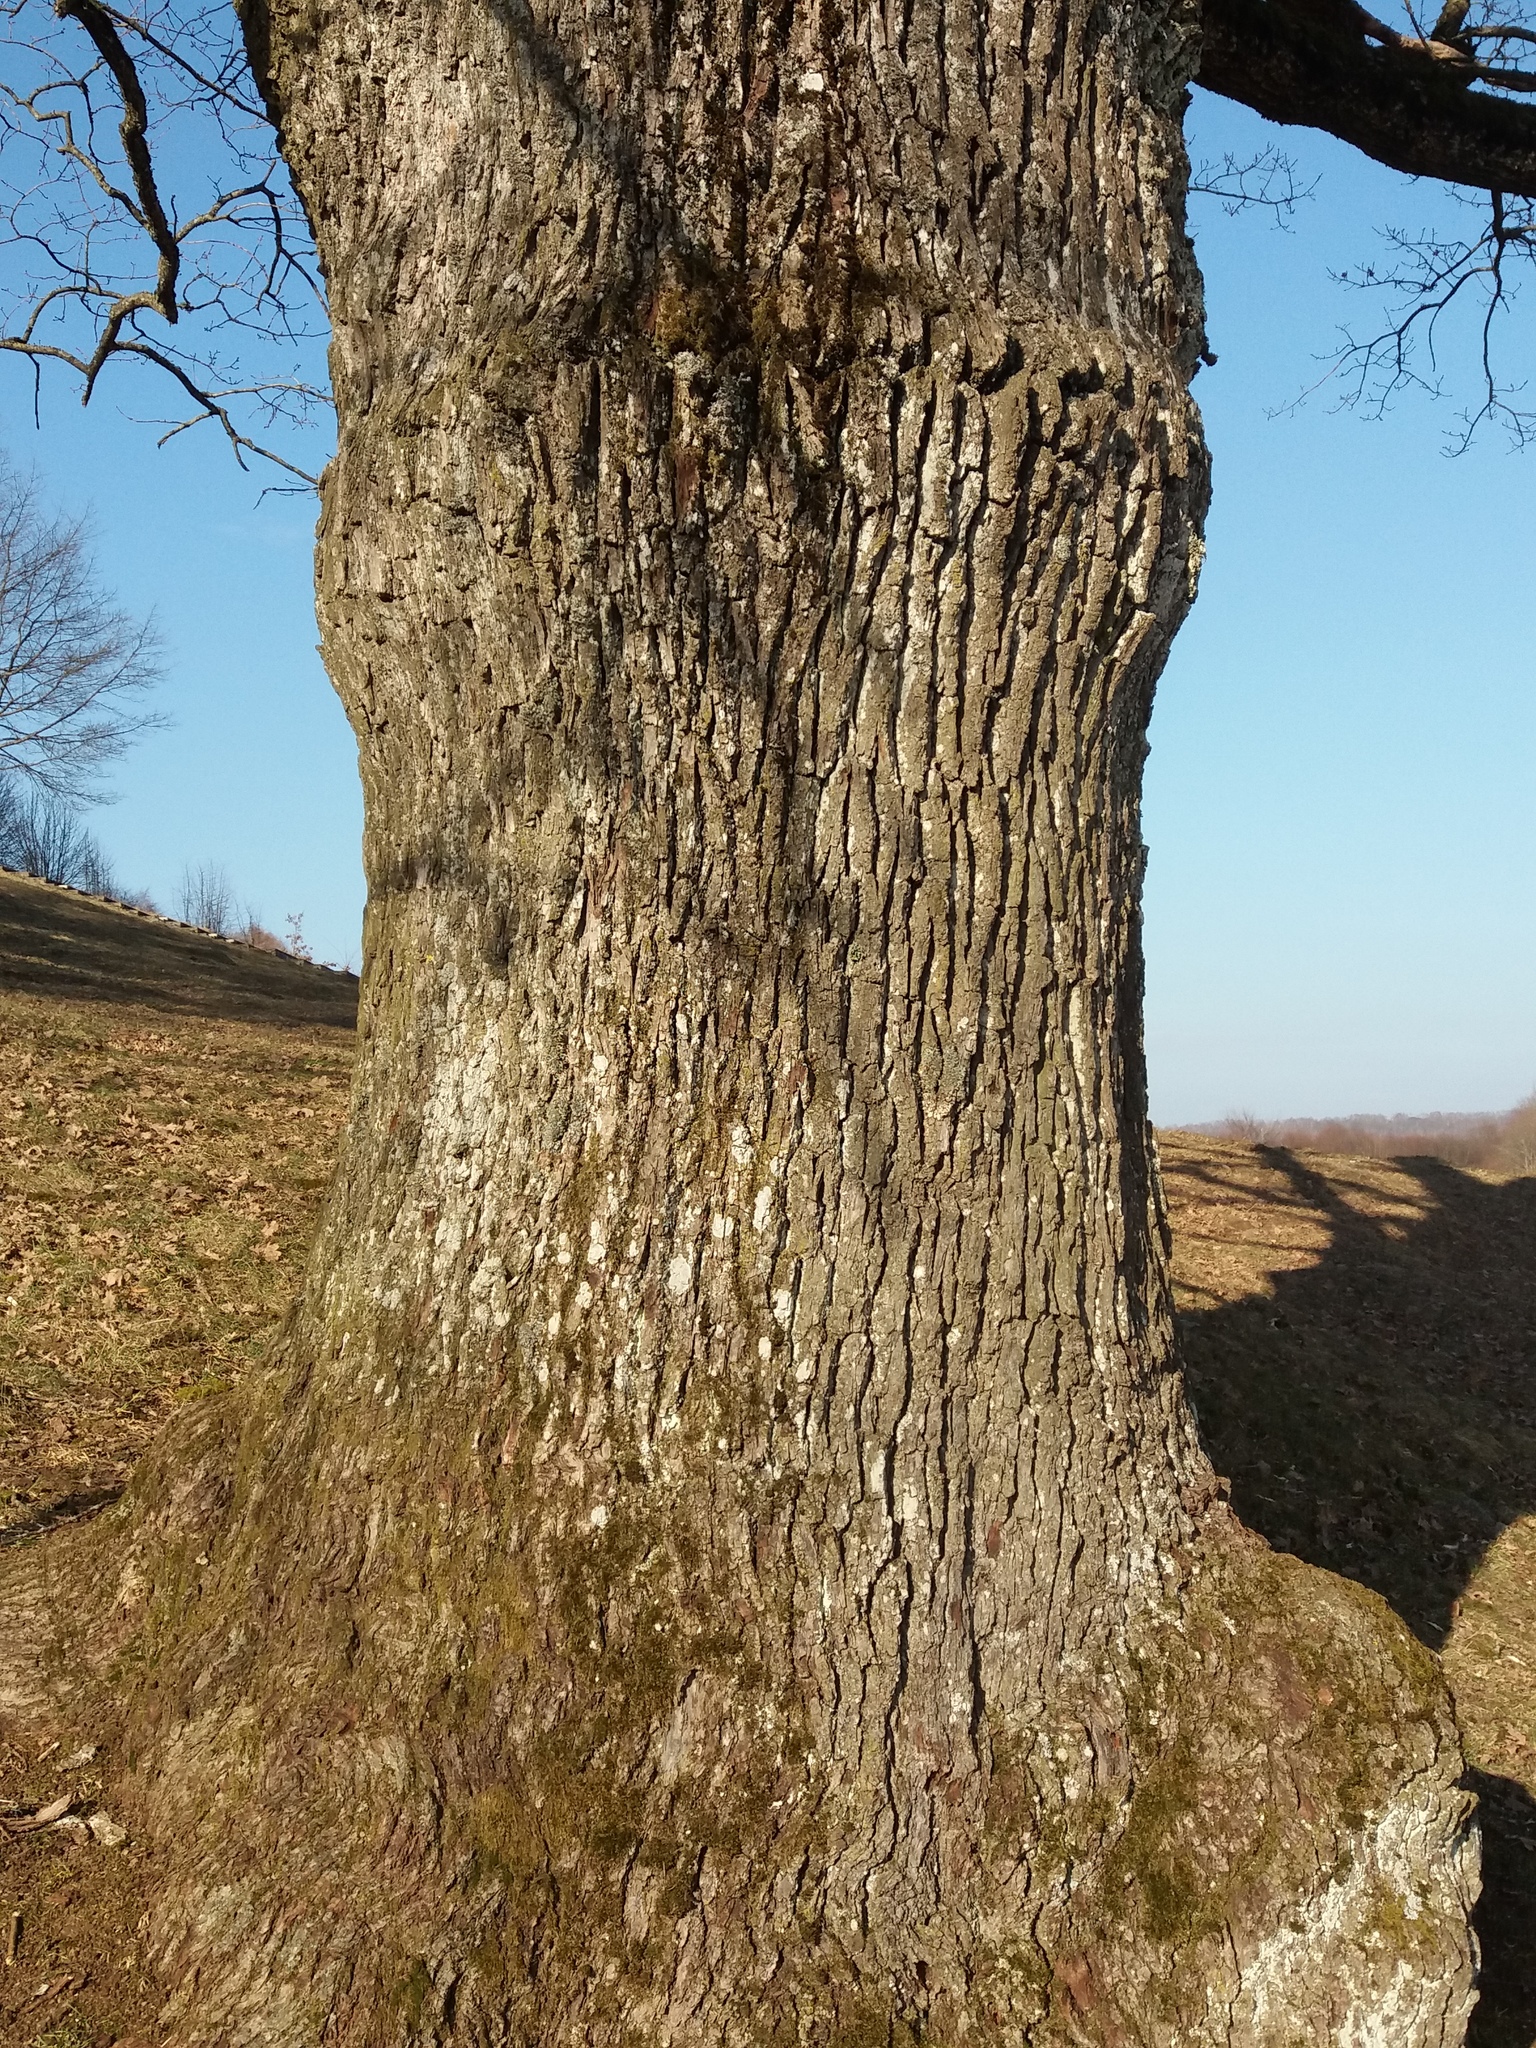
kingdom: Plantae
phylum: Tracheophyta
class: Magnoliopsida
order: Fagales
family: Fagaceae
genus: Quercus
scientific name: Quercus robur
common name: Pedunculate oak
